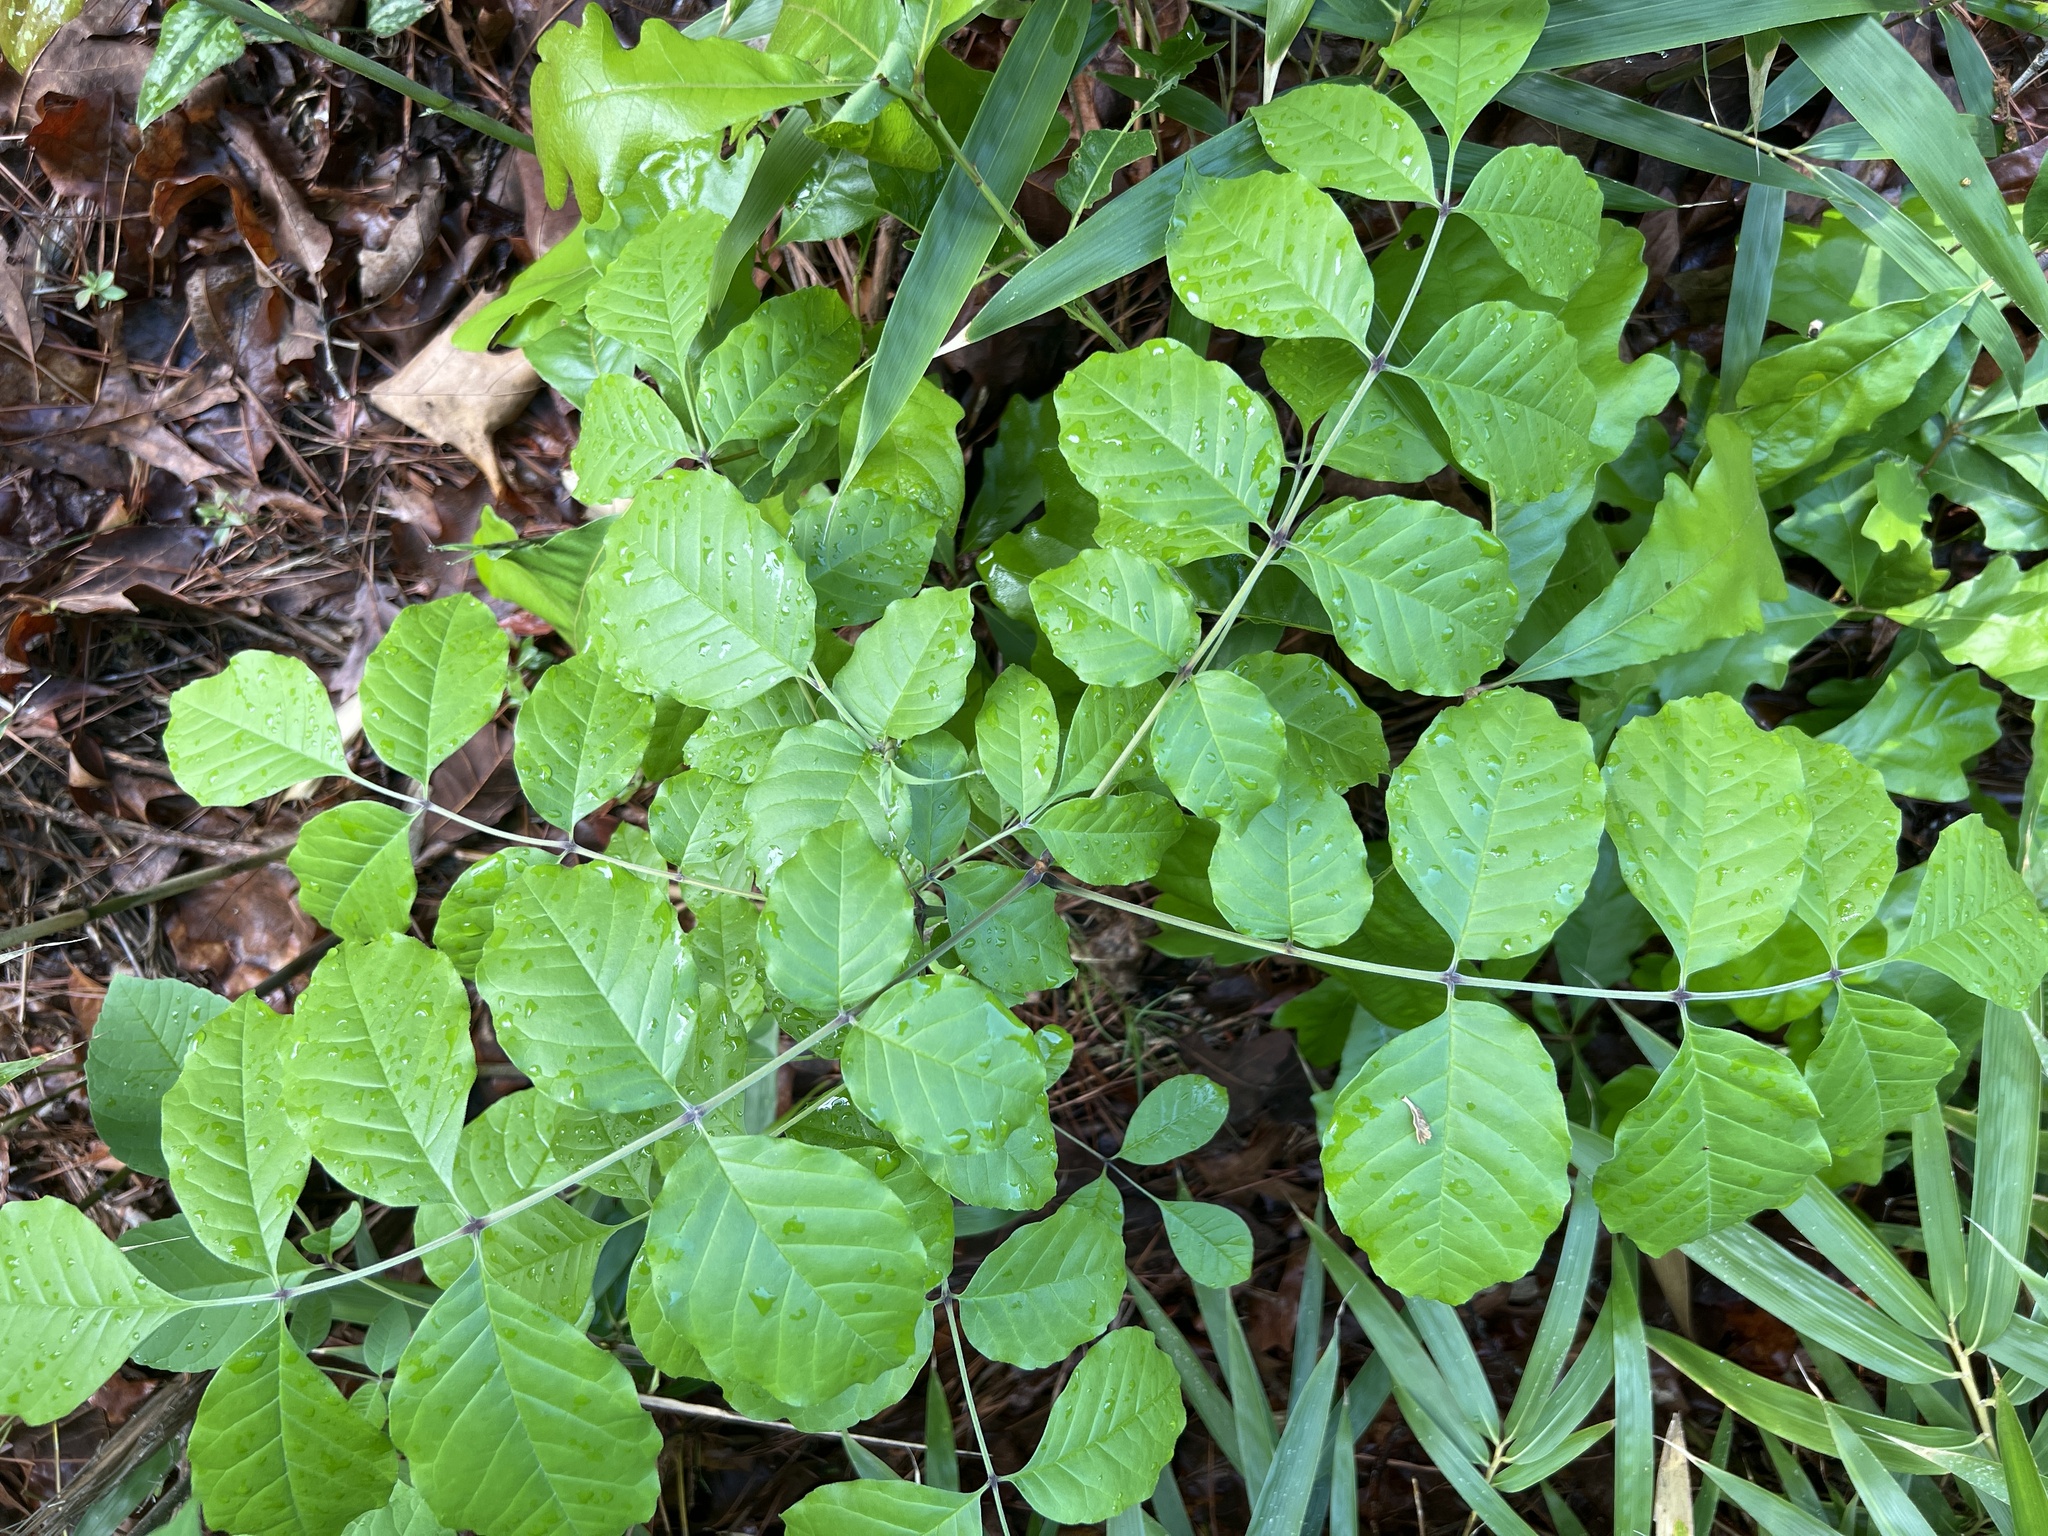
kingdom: Plantae
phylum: Tracheophyta
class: Magnoliopsida
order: Lamiales
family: Oleaceae
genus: Fraxinus
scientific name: Fraxinus americana
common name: White ash
